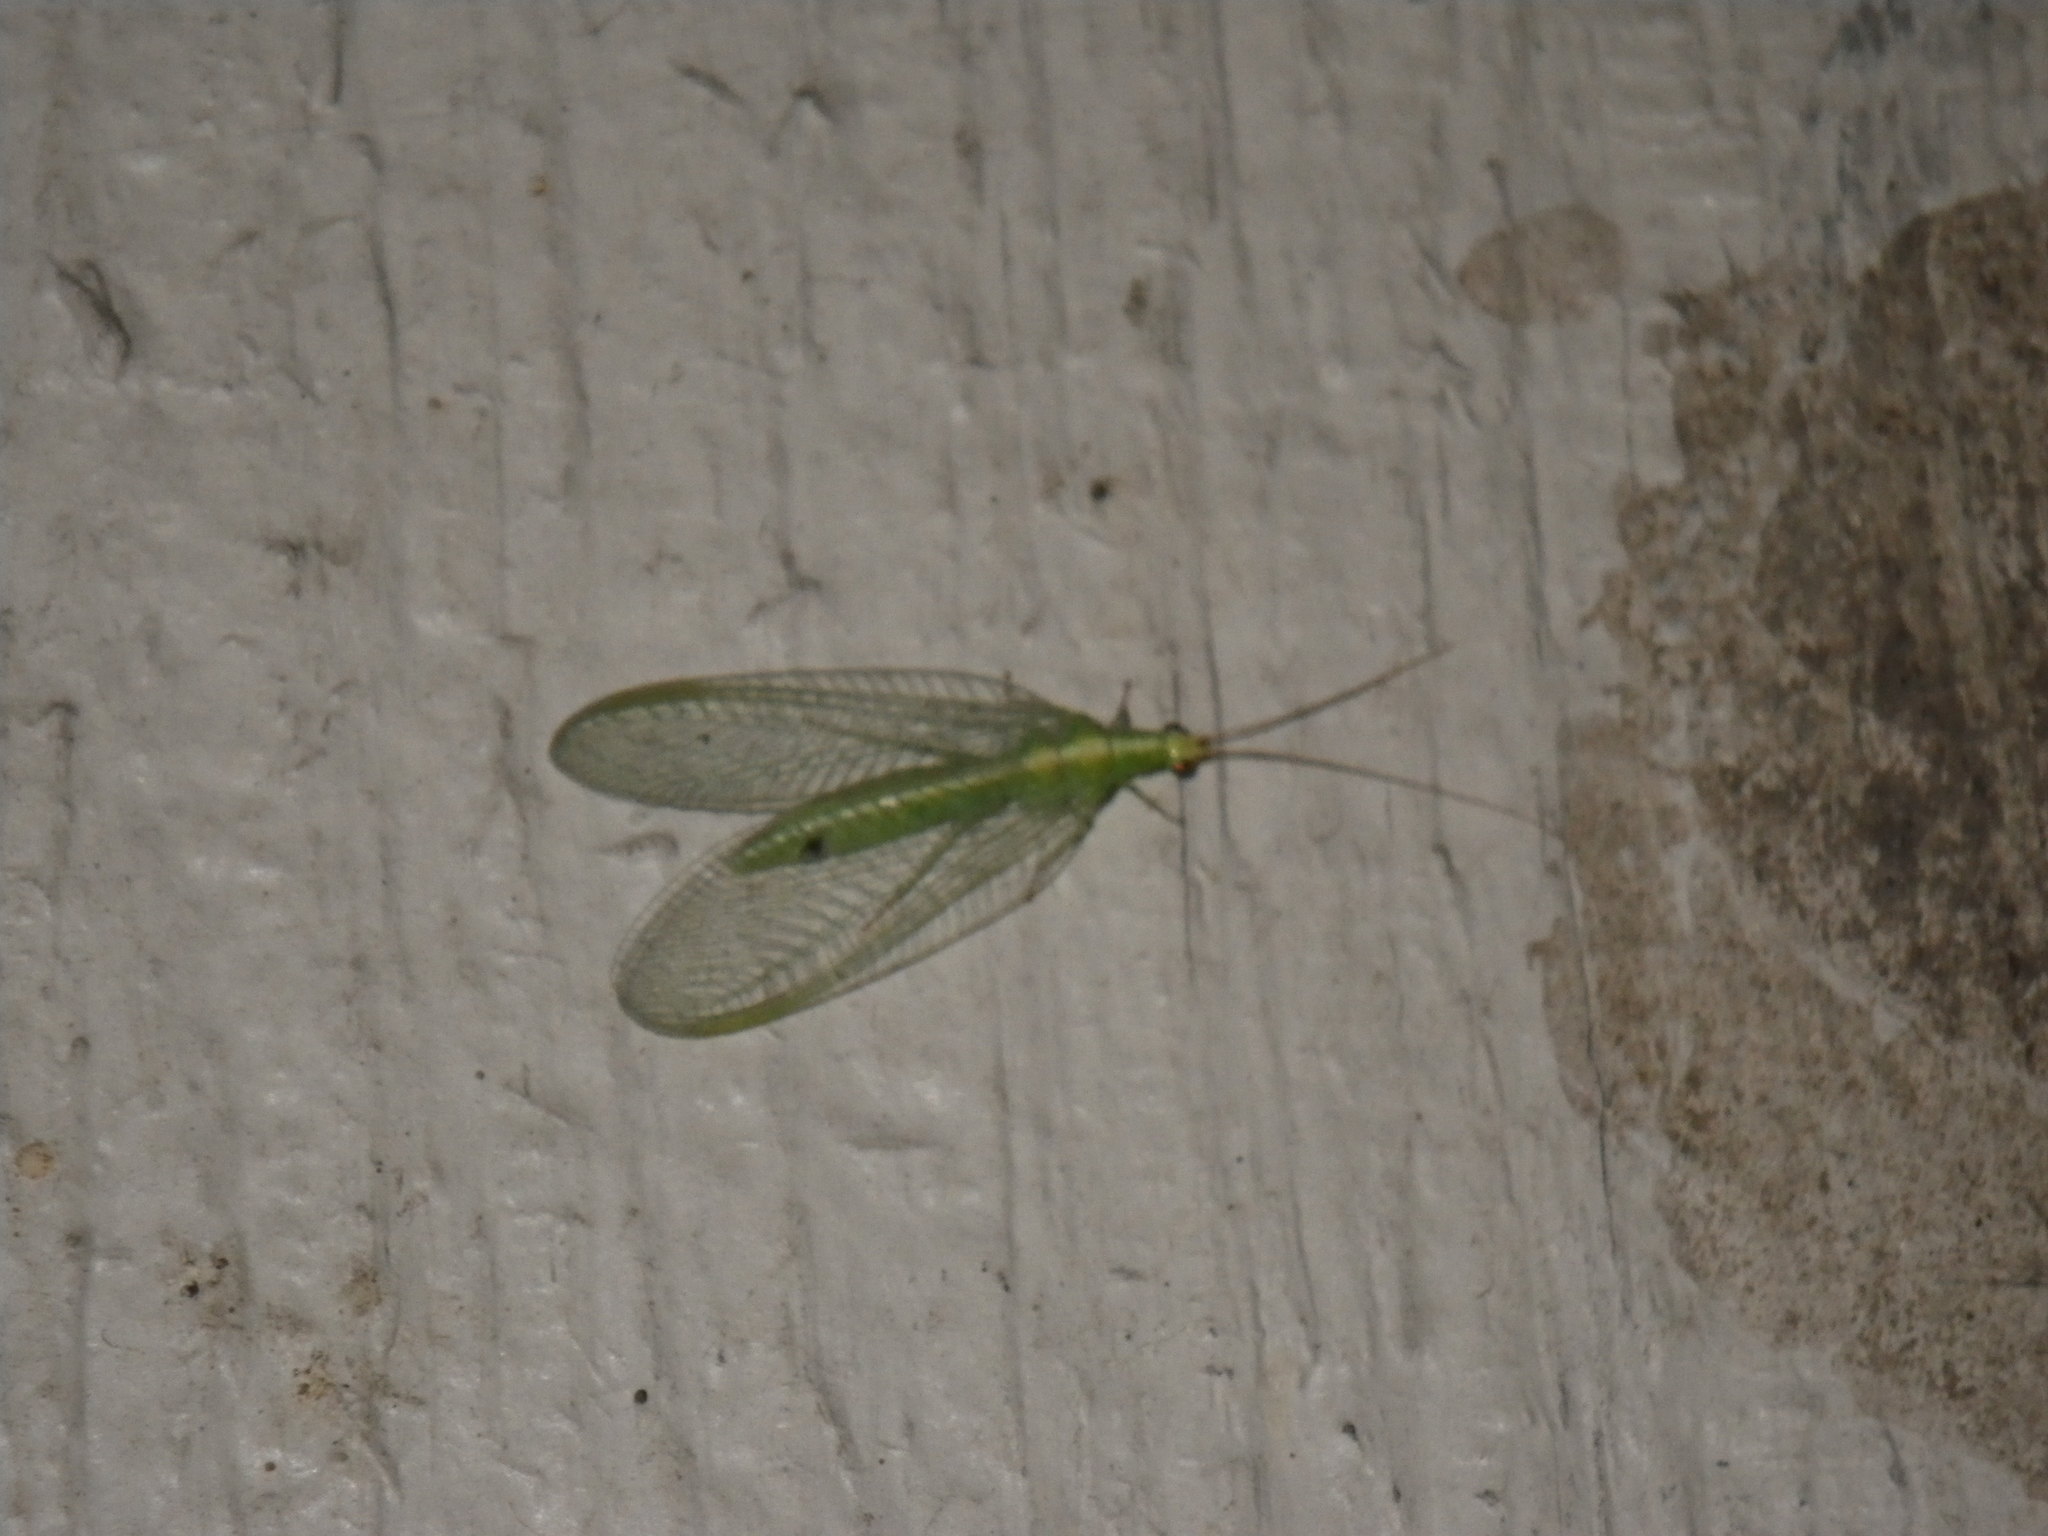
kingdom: Animalia
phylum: Arthropoda
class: Insecta
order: Neuroptera
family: Chrysopidae
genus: Chrysoperla
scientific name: Chrysoperla
